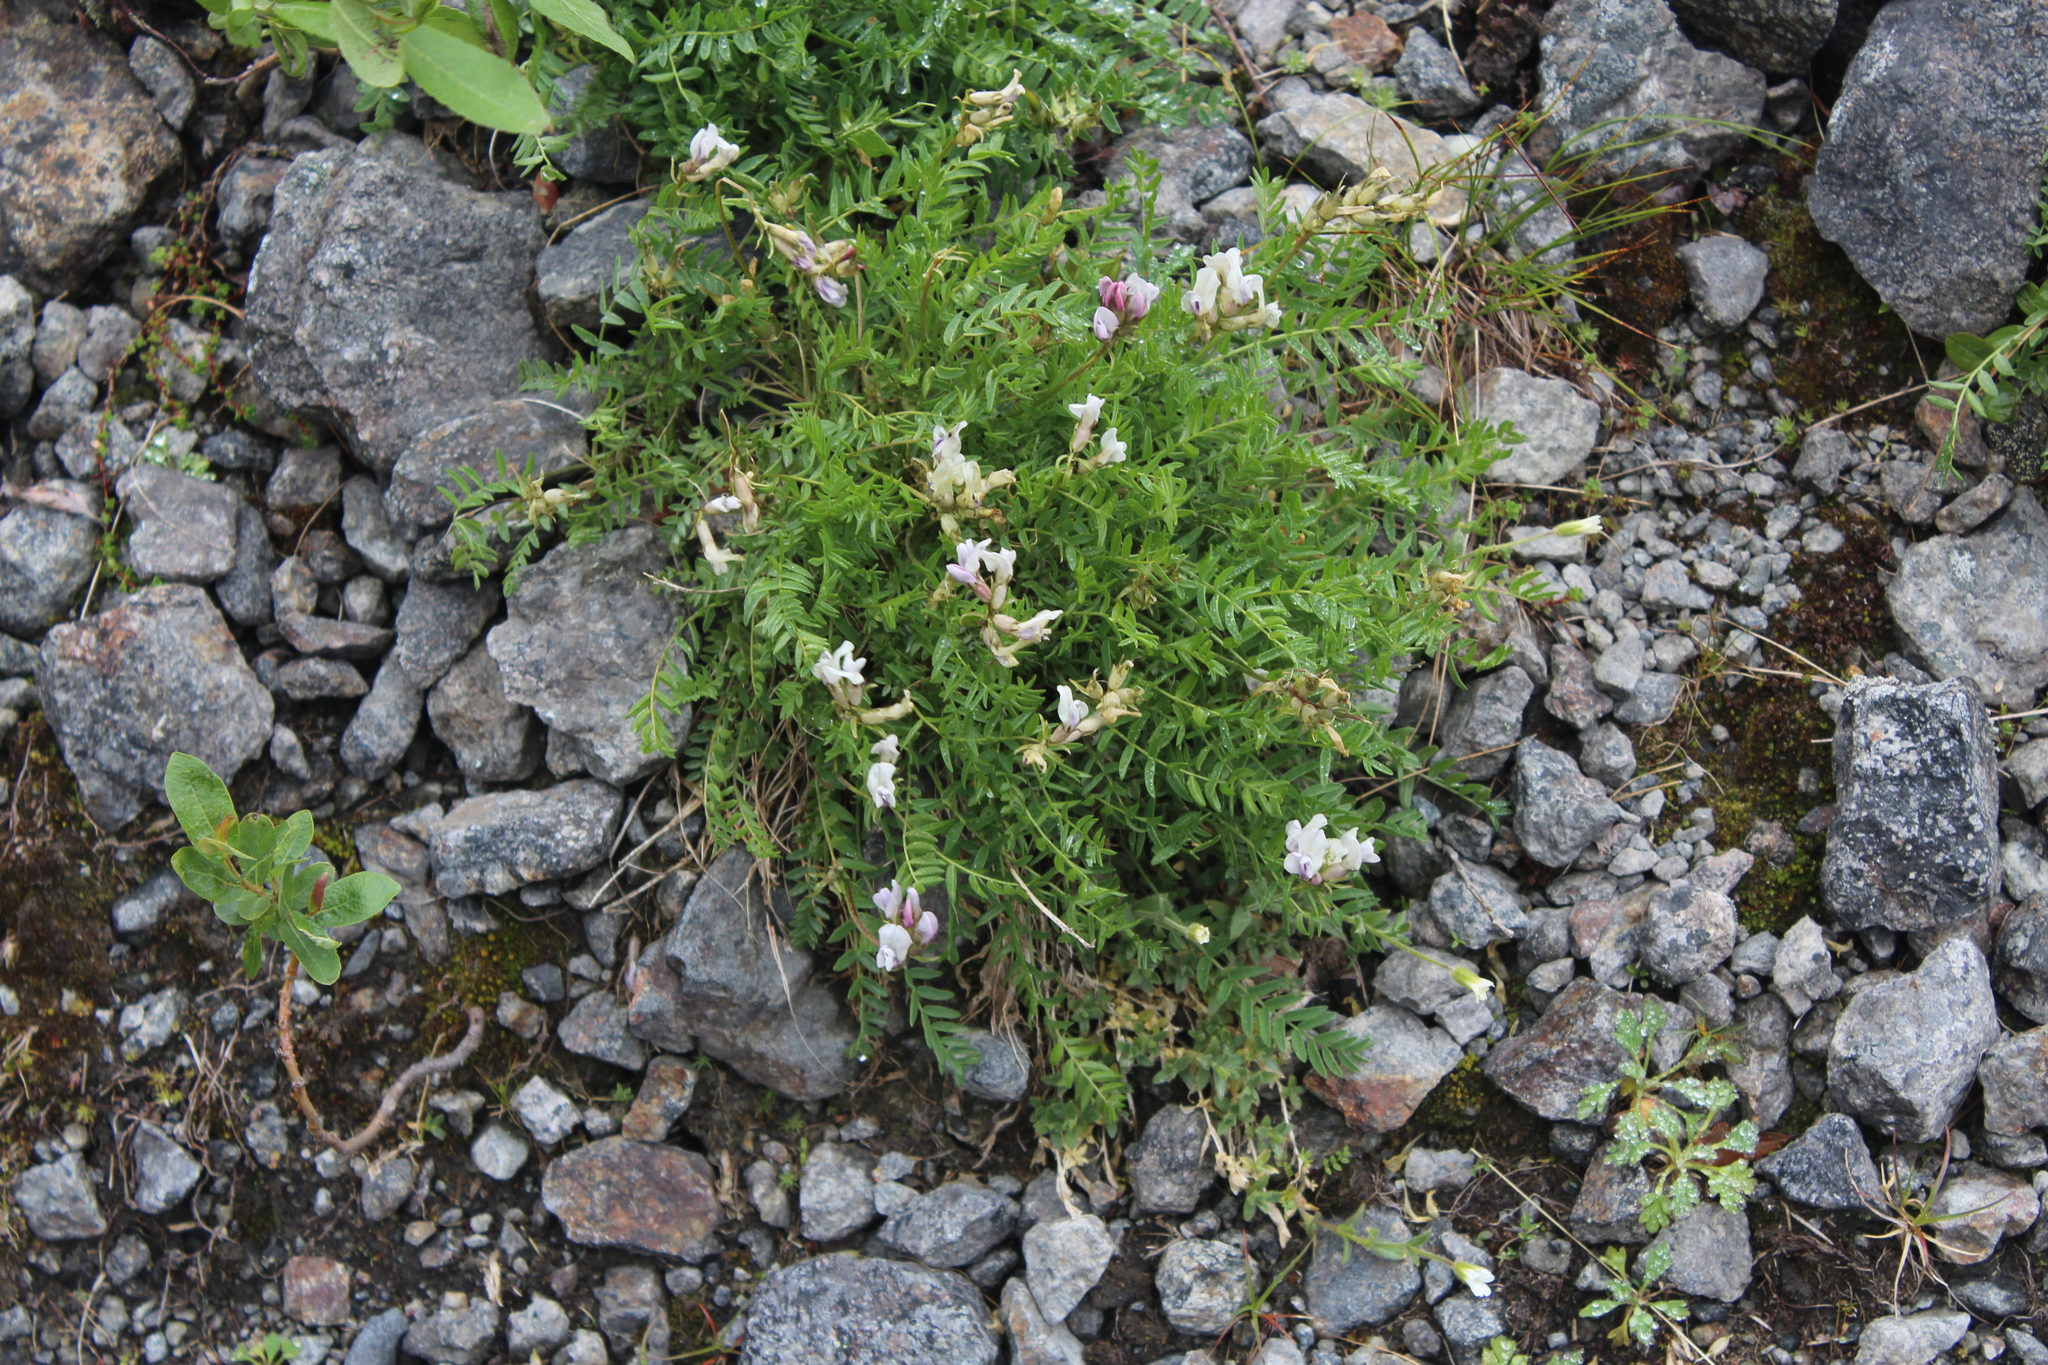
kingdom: Plantae
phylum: Tracheophyta
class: Magnoliopsida
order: Fabales
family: Fabaceae
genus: Oxytropis
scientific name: Oxytropis sordida
